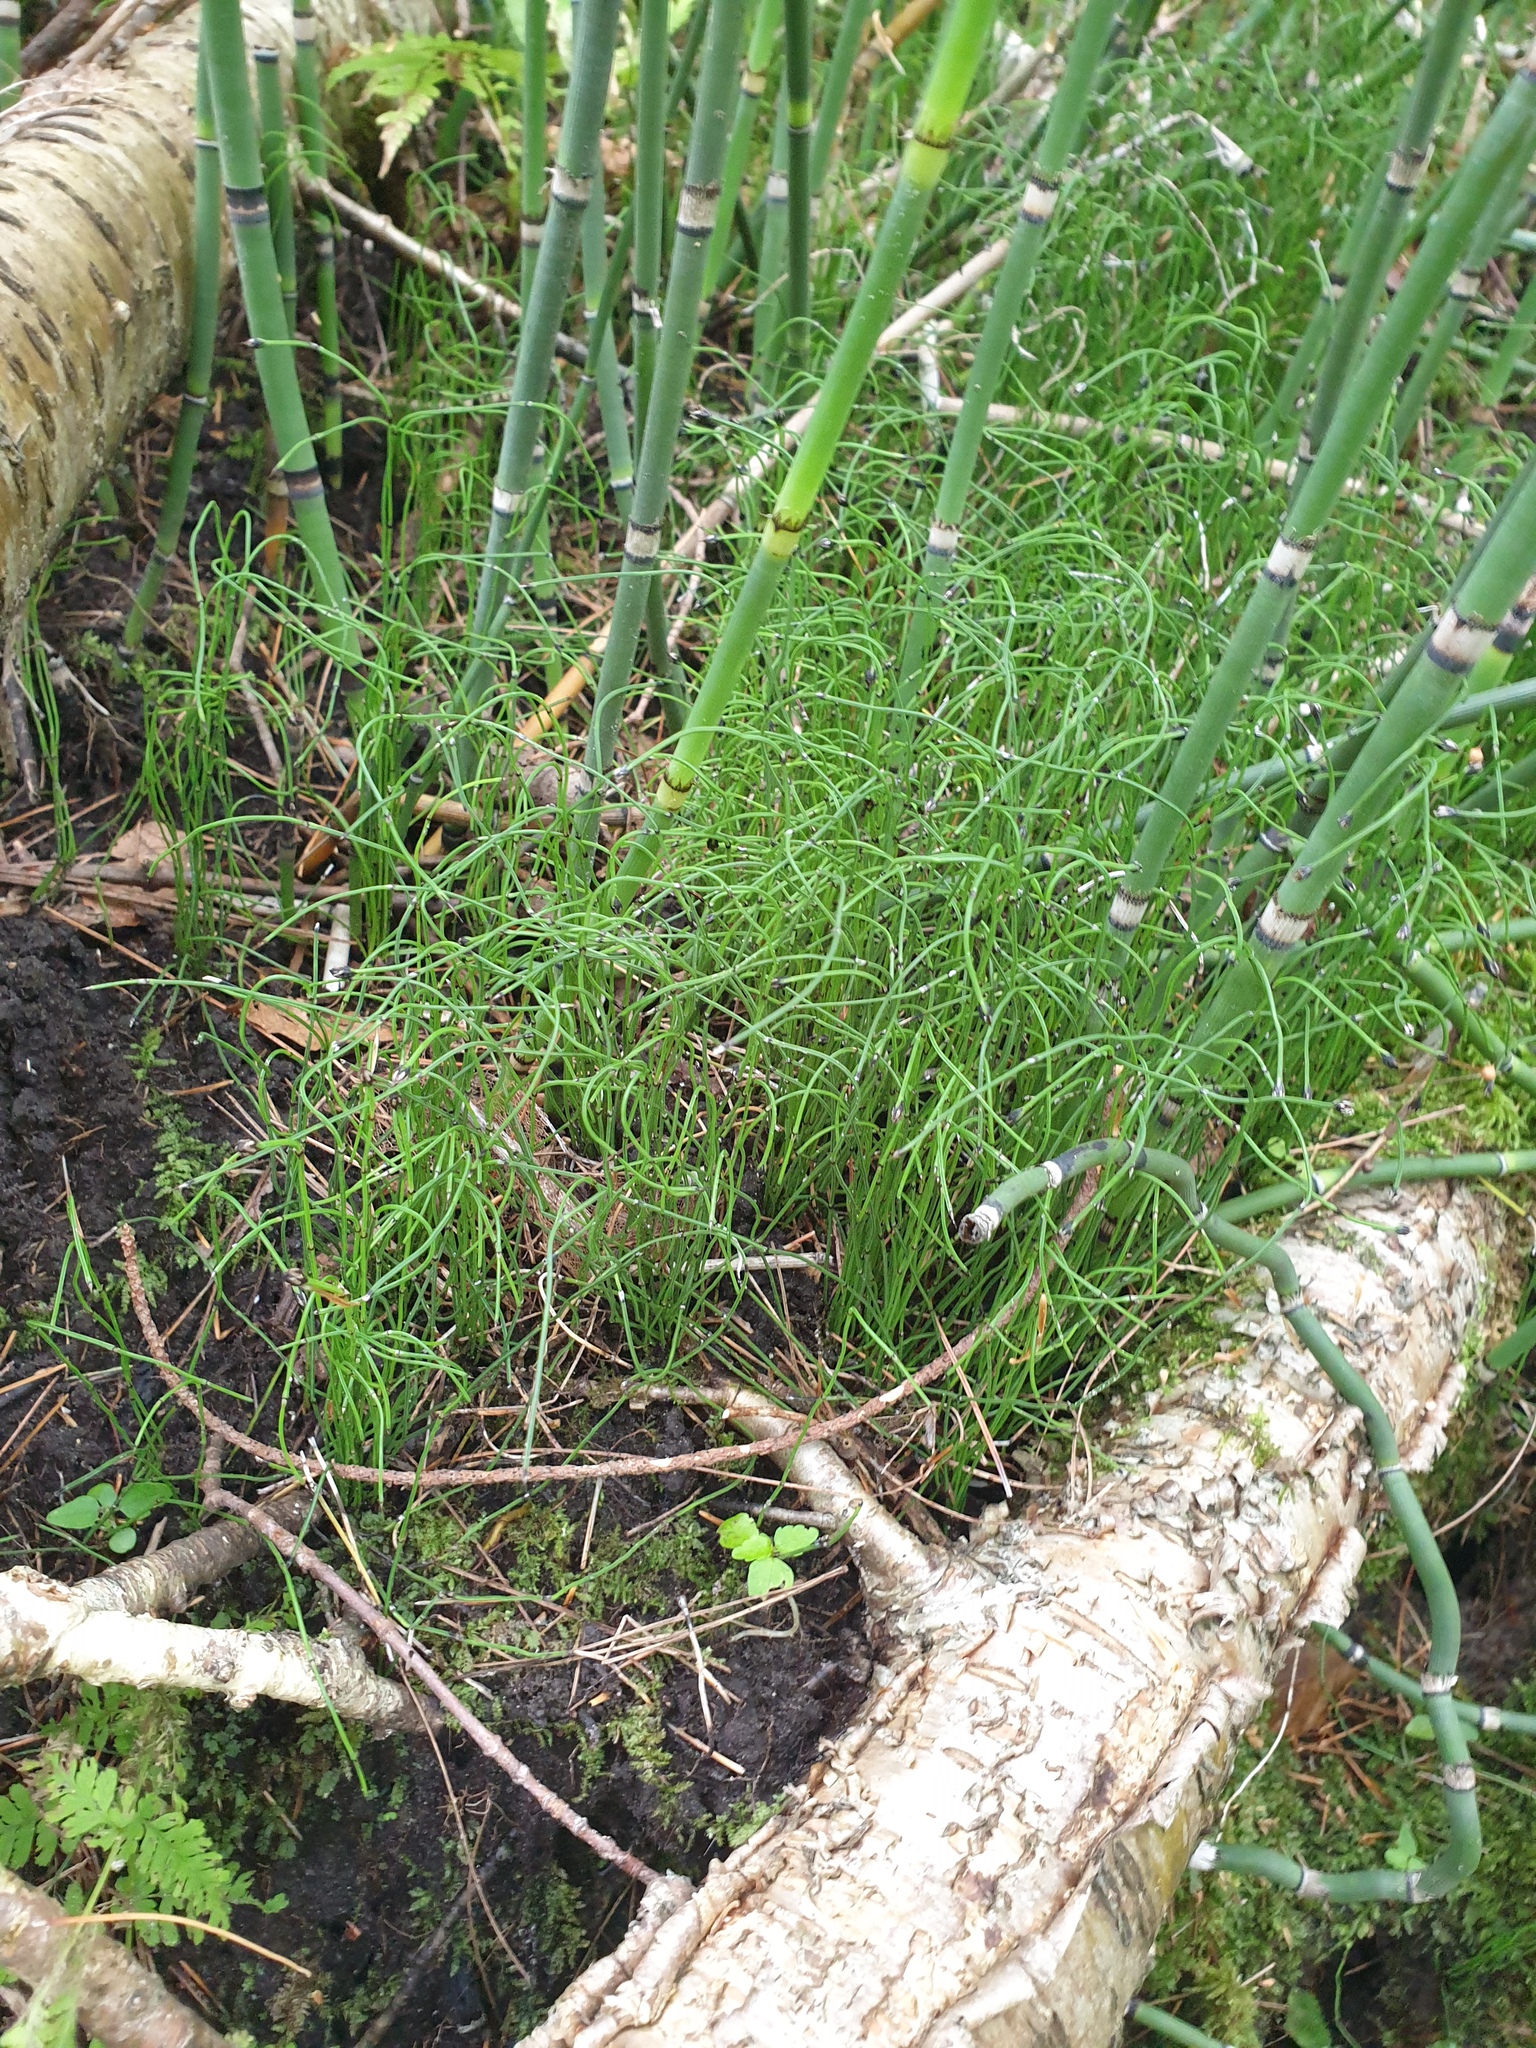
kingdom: Plantae
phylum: Tracheophyta
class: Polypodiopsida
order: Equisetales
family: Equisetaceae
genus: Equisetum
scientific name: Equisetum scirpoides
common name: Delicate horsetail
